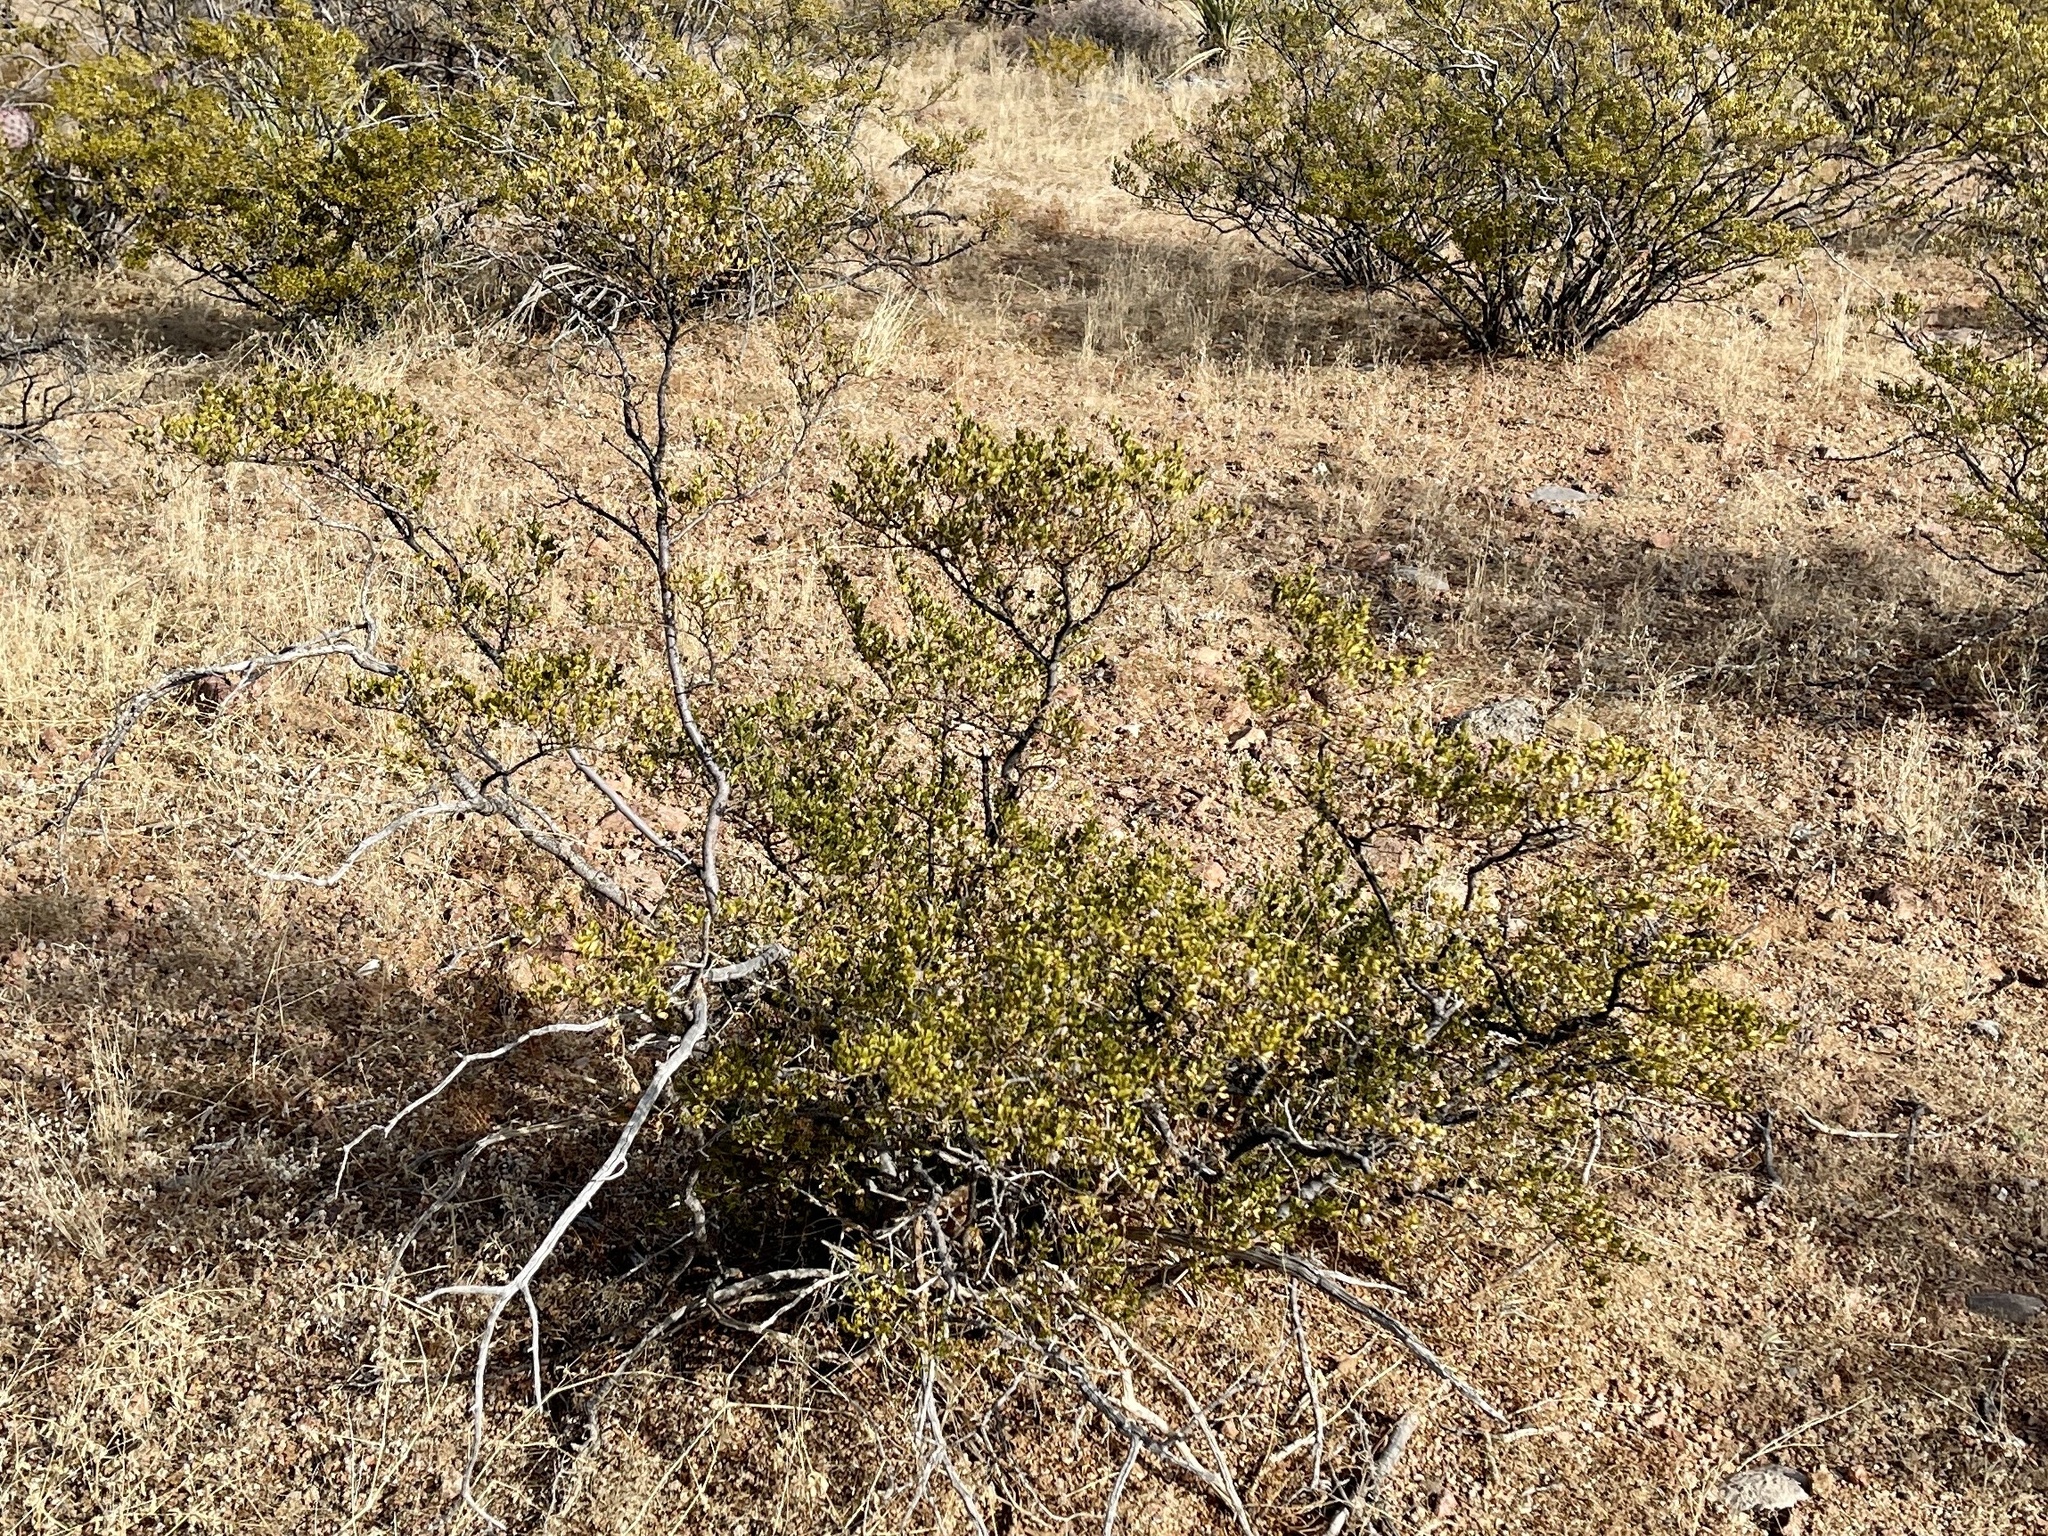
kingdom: Plantae
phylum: Tracheophyta
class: Magnoliopsida
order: Zygophyllales
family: Zygophyllaceae
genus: Larrea
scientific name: Larrea tridentata
